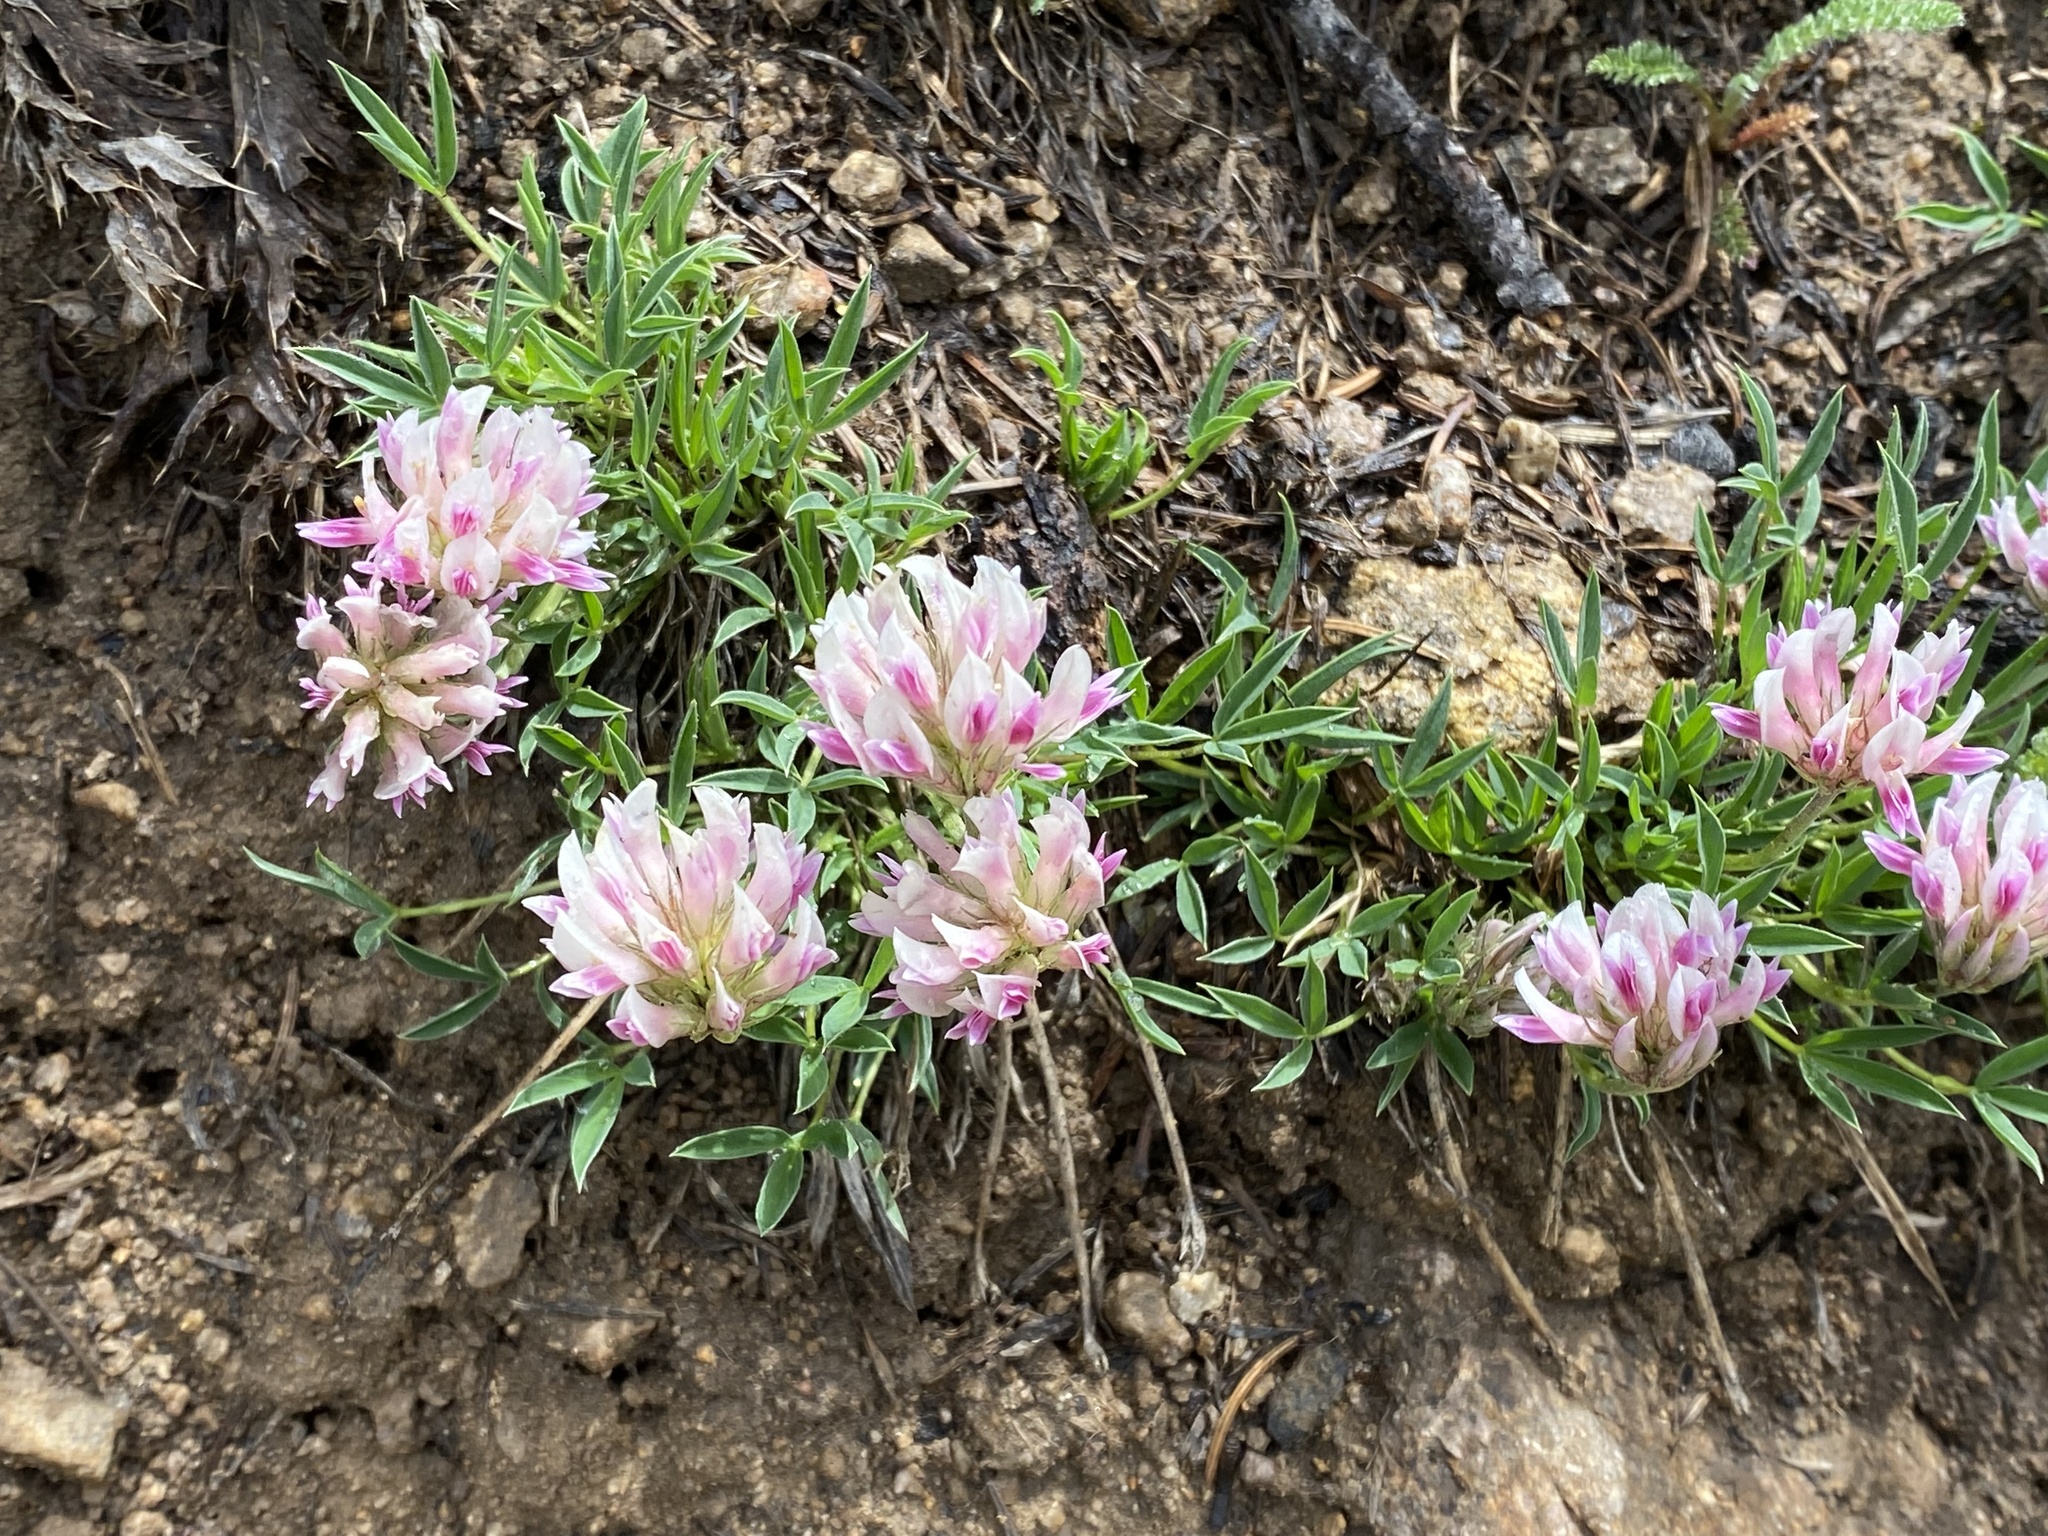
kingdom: Plantae
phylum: Tracheophyta
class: Magnoliopsida
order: Fabales
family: Fabaceae
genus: Trifolium
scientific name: Trifolium dasyphyllum
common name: Whip-root clover
